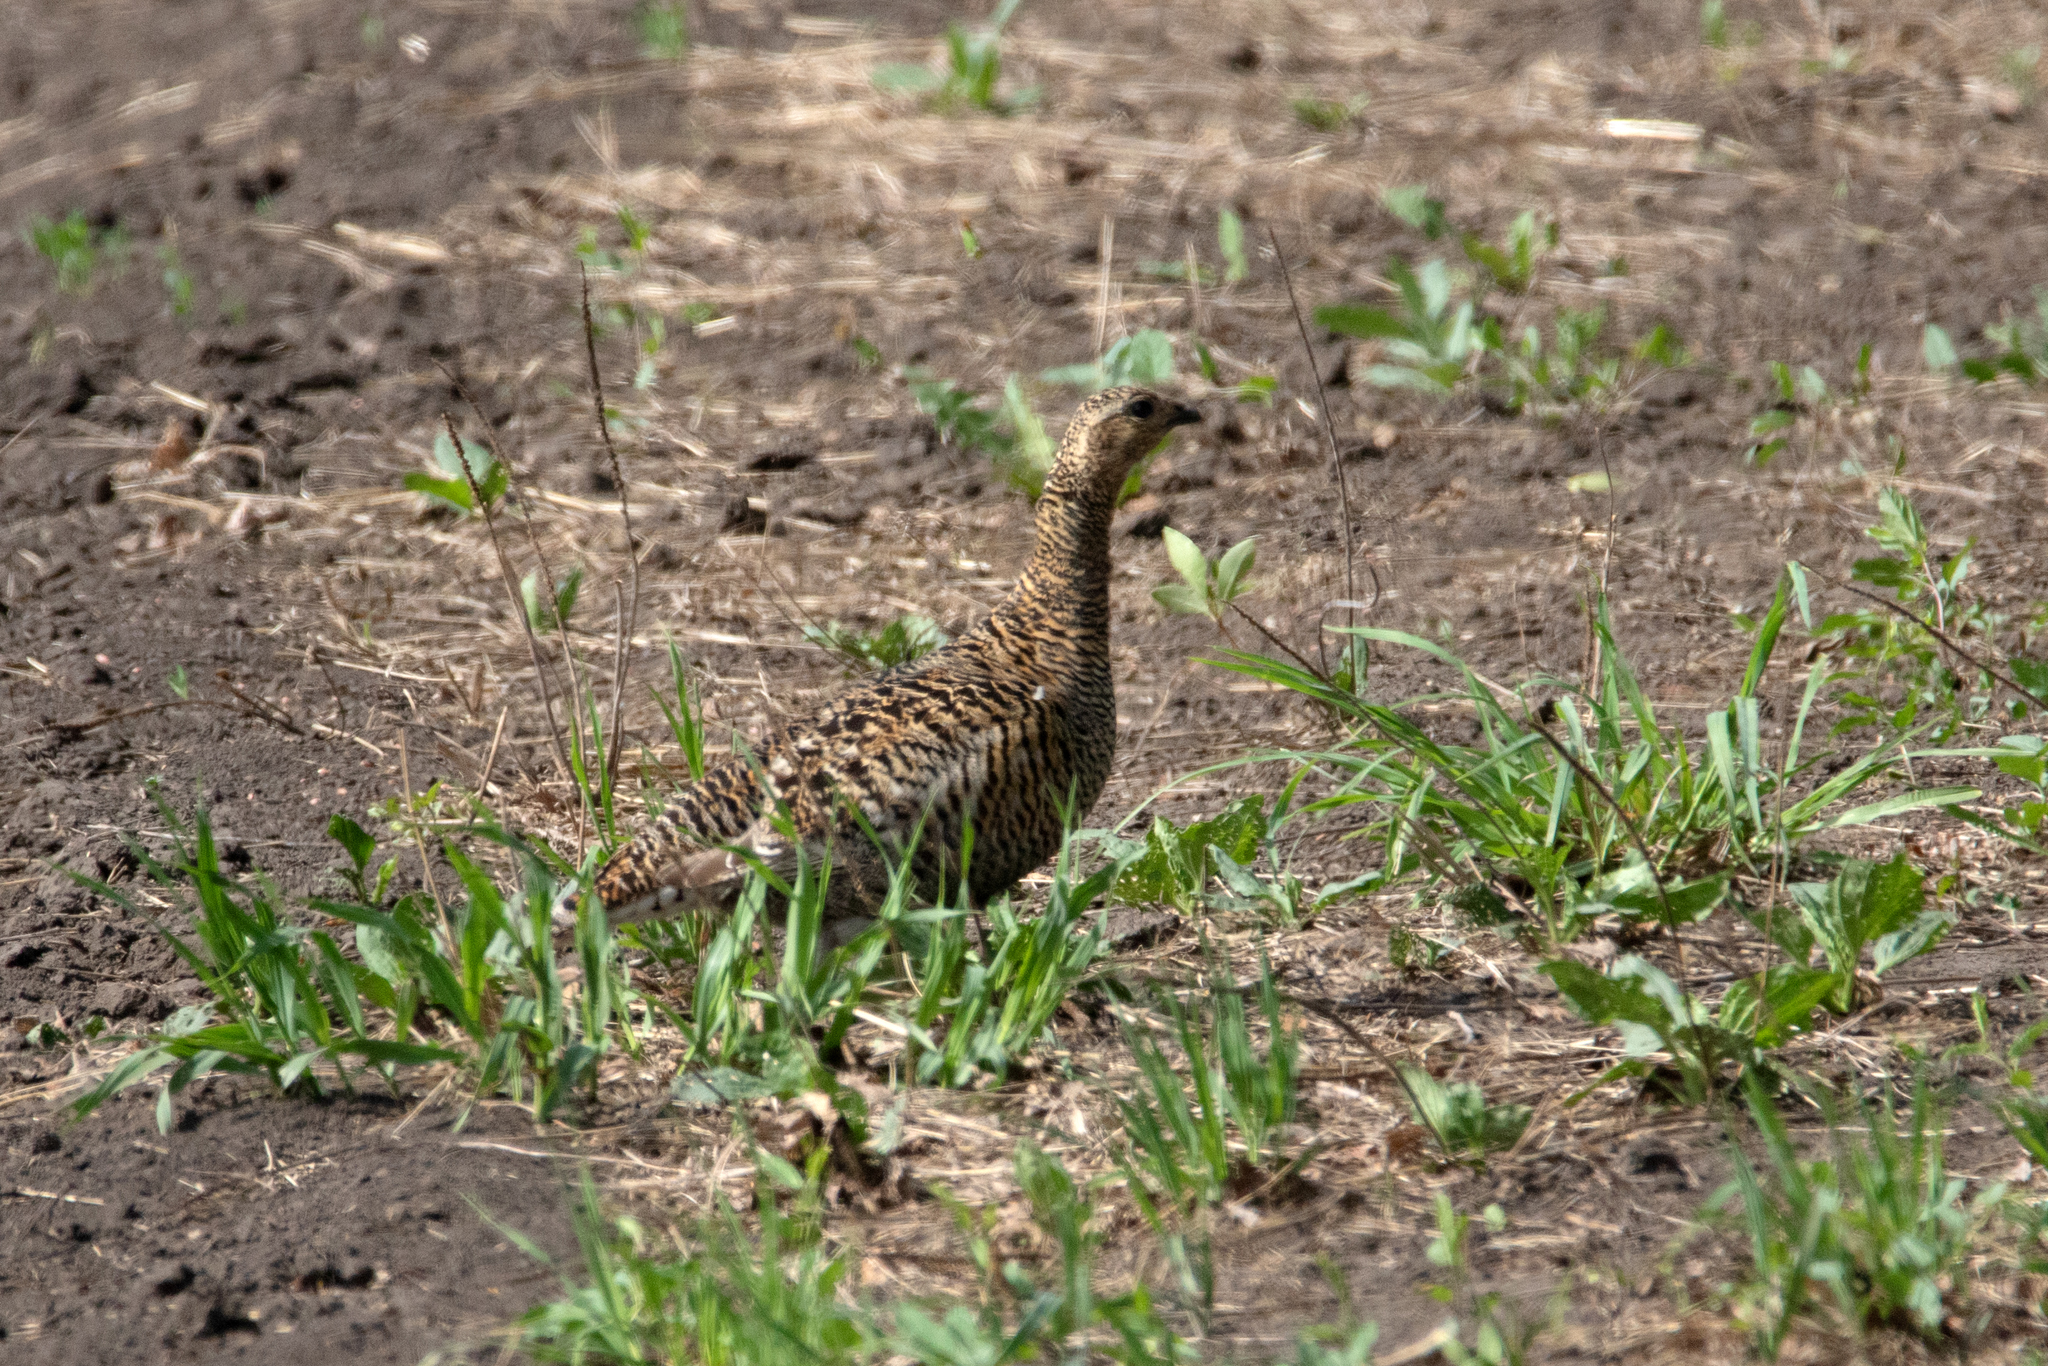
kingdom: Animalia
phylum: Chordata
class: Aves
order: Galliformes
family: Phasianidae
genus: Lyrurus
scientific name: Lyrurus tetrix
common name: Black grouse
